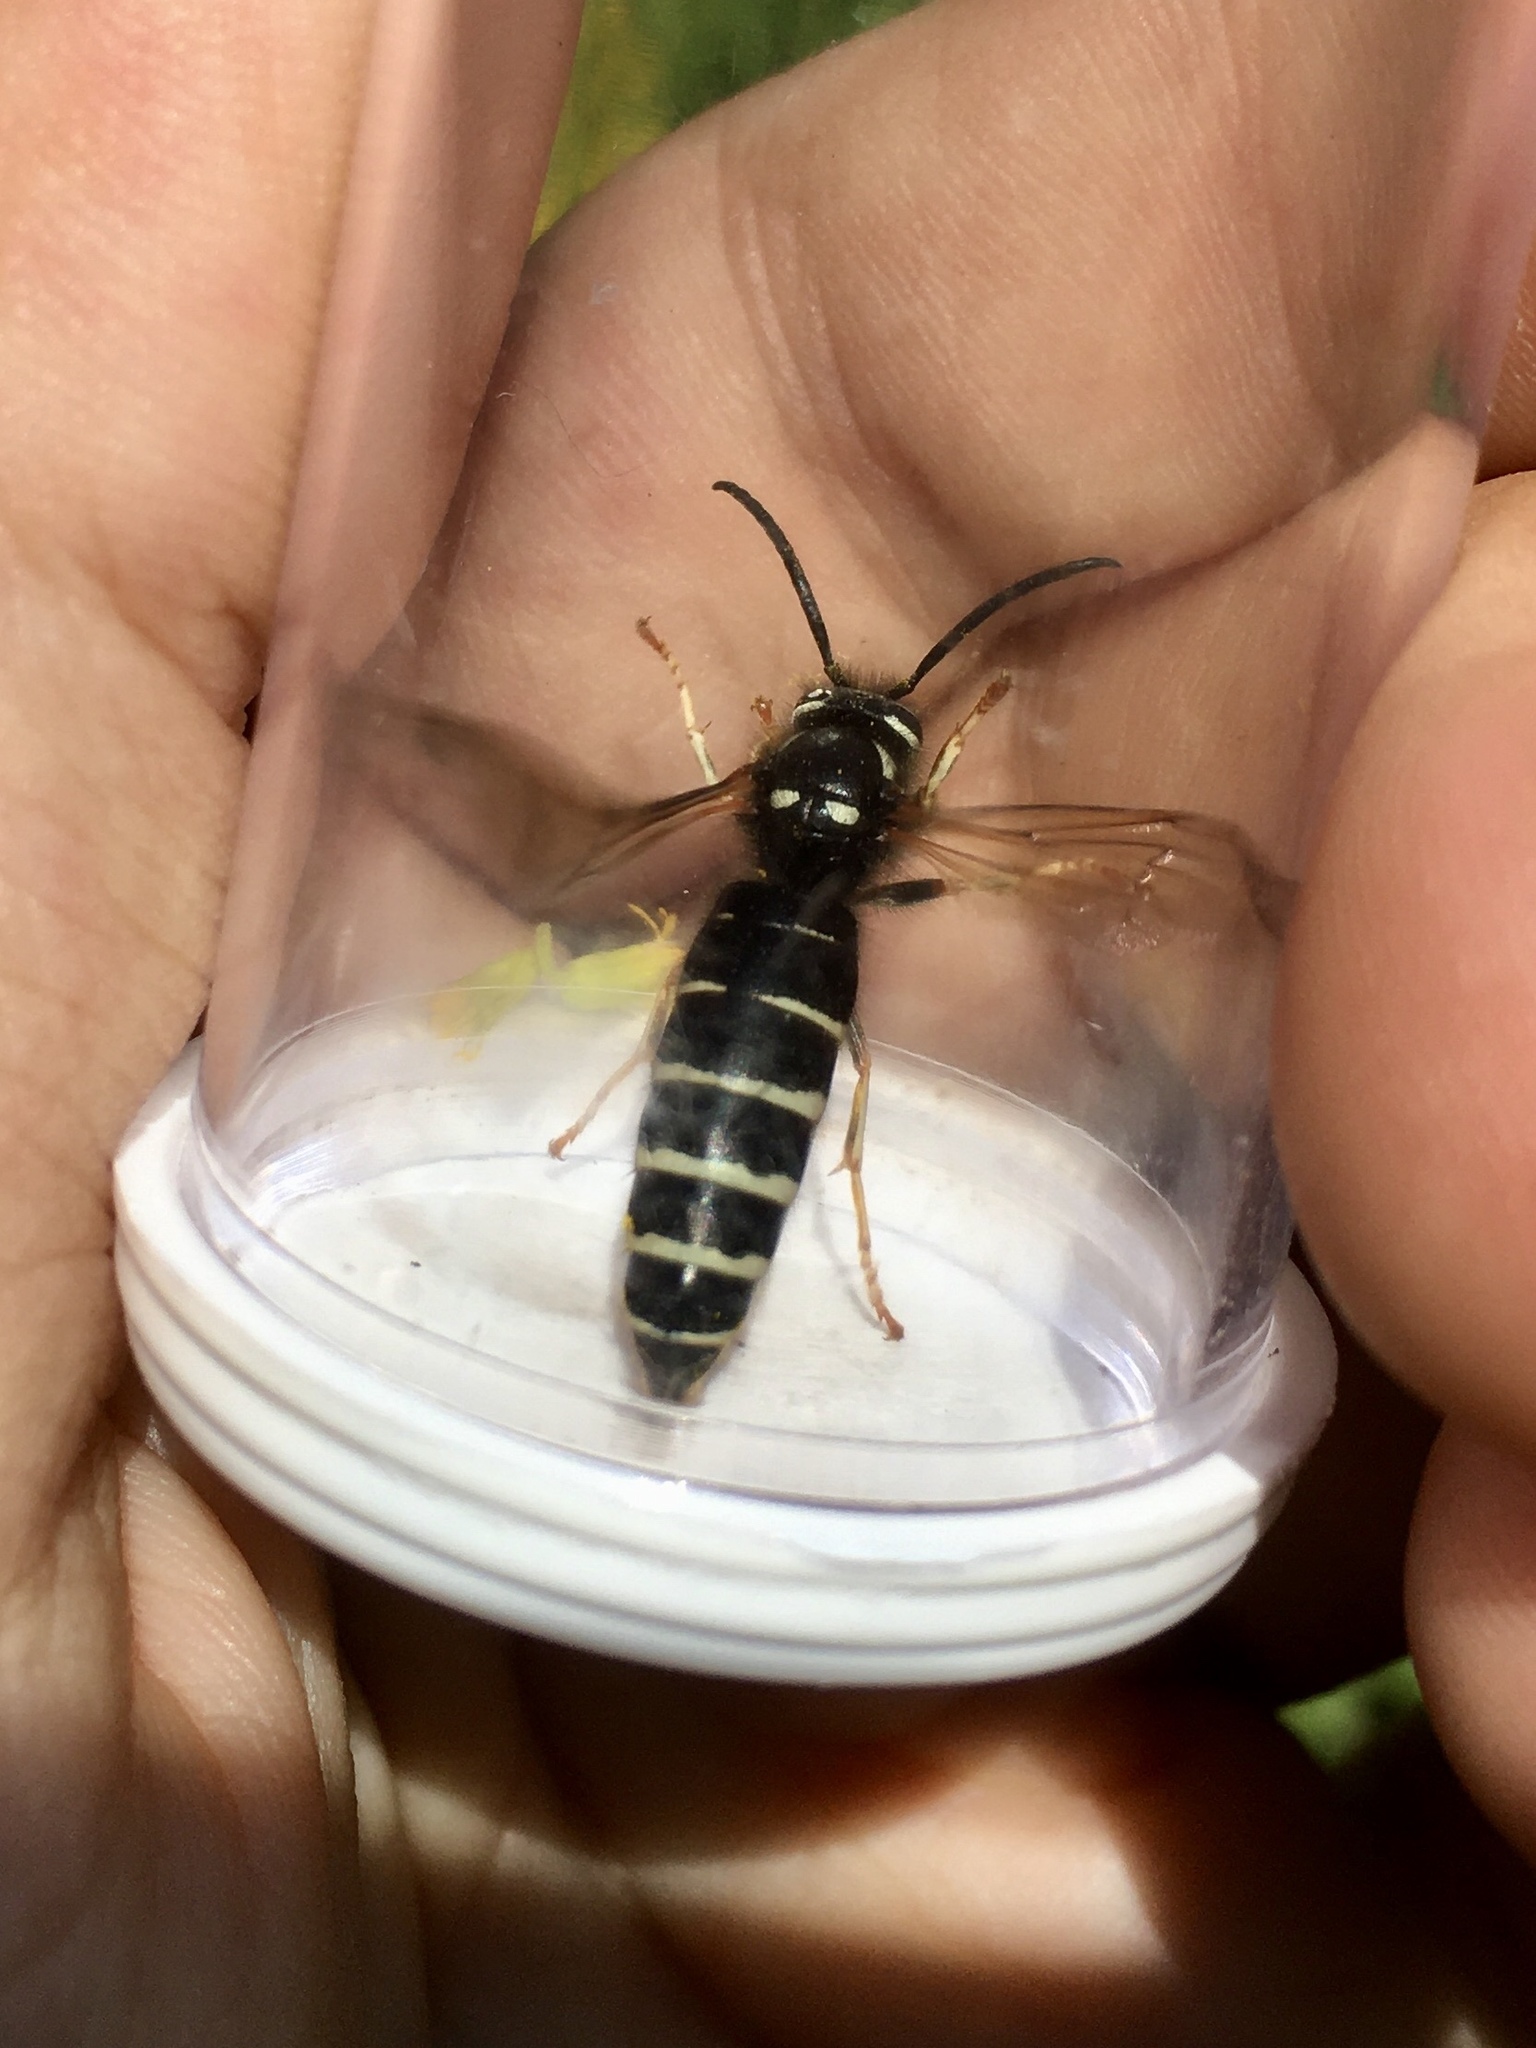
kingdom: Animalia
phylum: Arthropoda
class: Insecta
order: Hymenoptera
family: Vespidae
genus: Vespula
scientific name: Vespula consobrina
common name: Blackjacket
